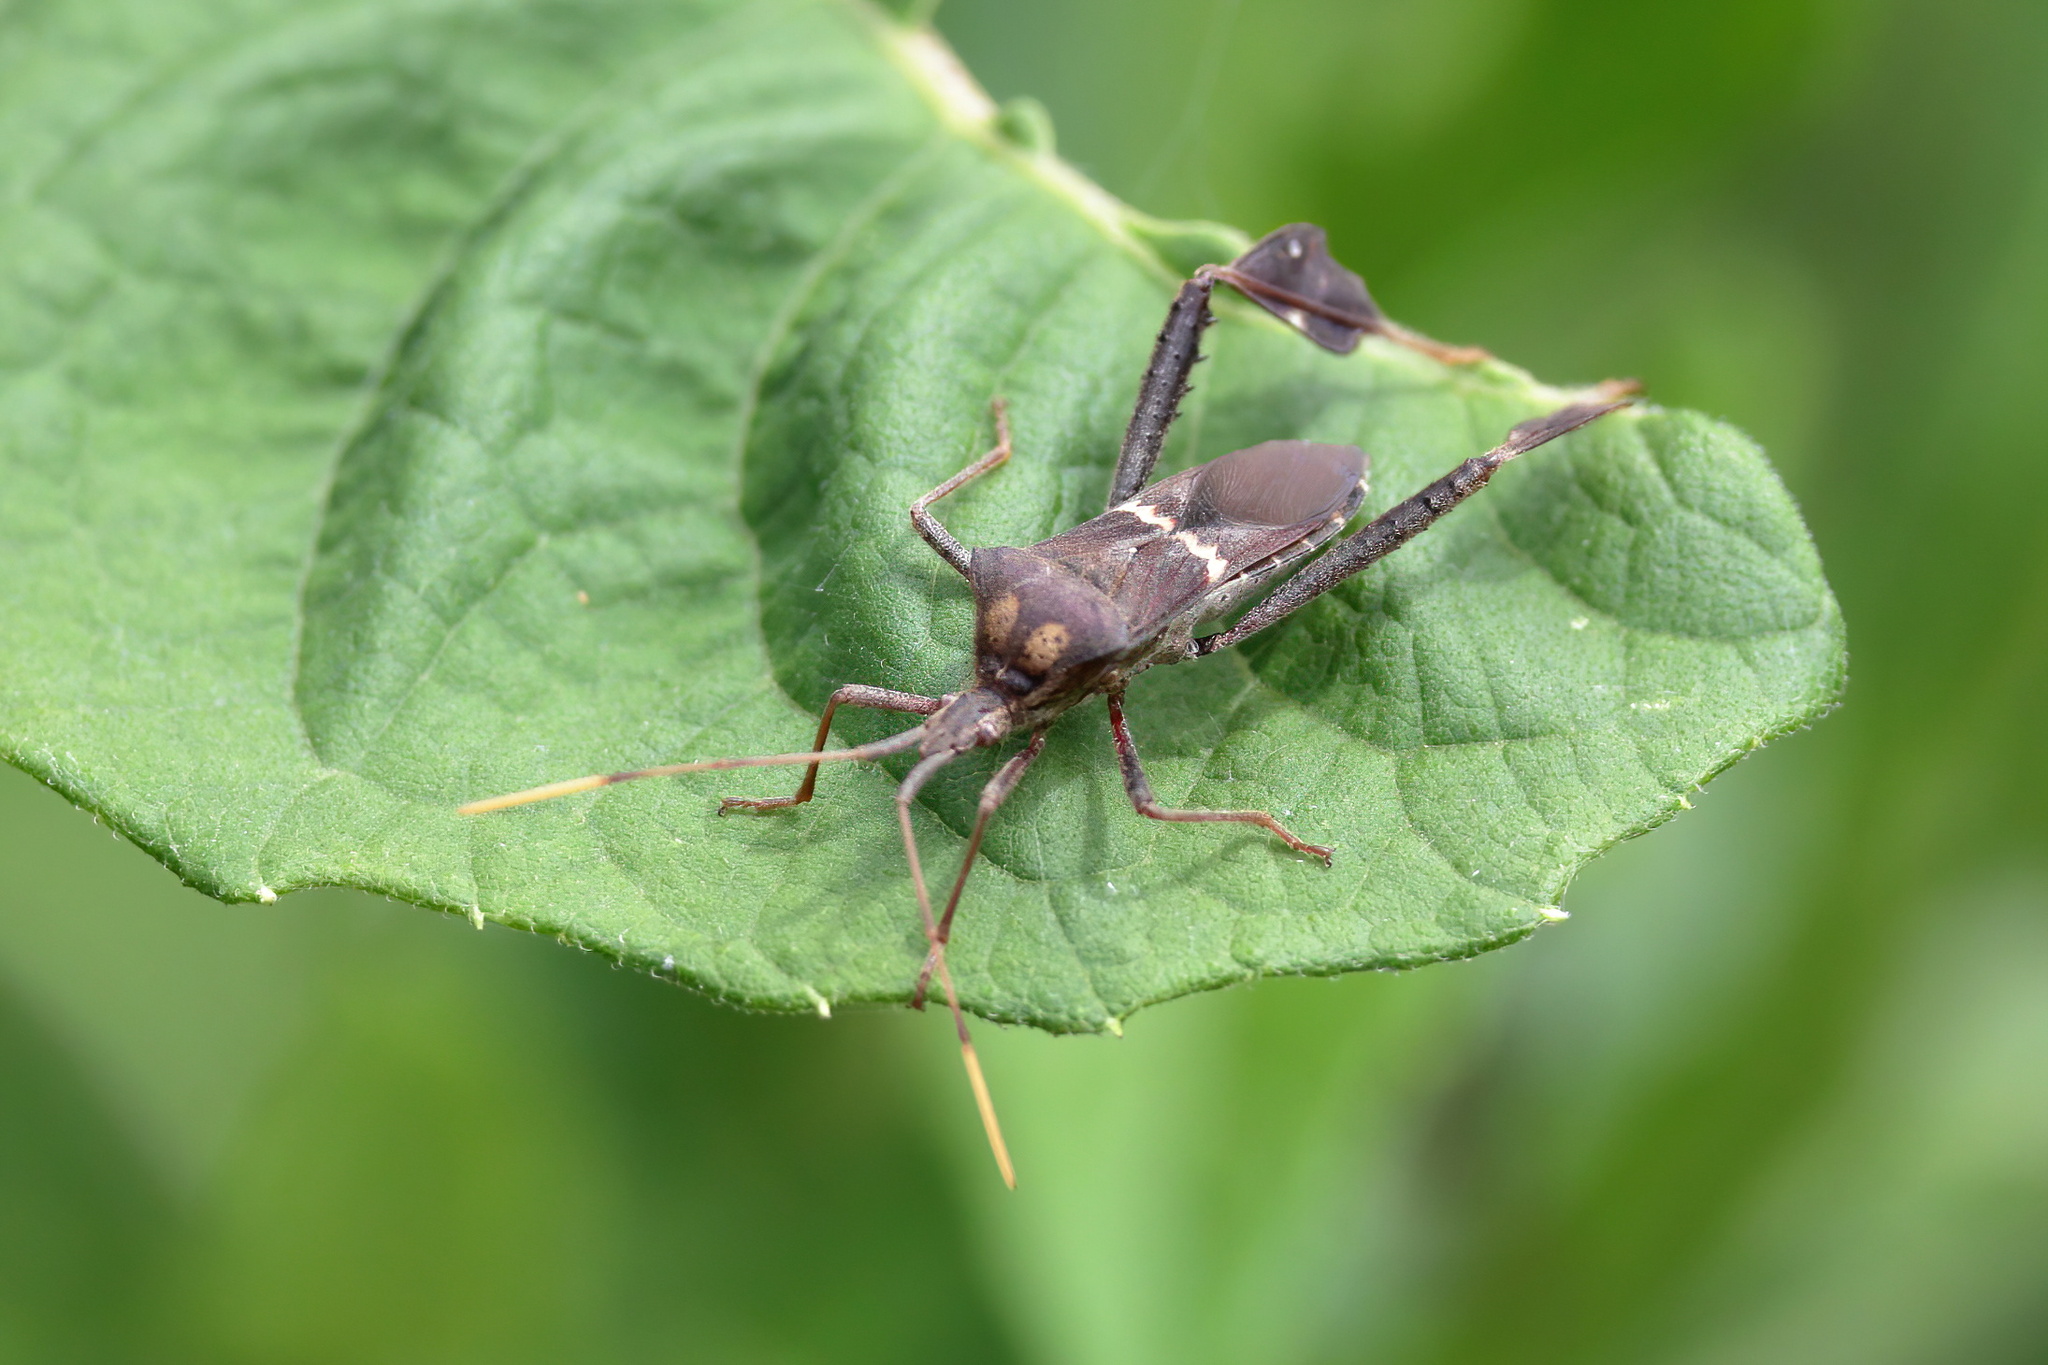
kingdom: Animalia
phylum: Arthropoda
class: Insecta
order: Hemiptera
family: Coreidae
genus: Leptoglossus
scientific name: Leptoglossus zonatus
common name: Large-legged bug
